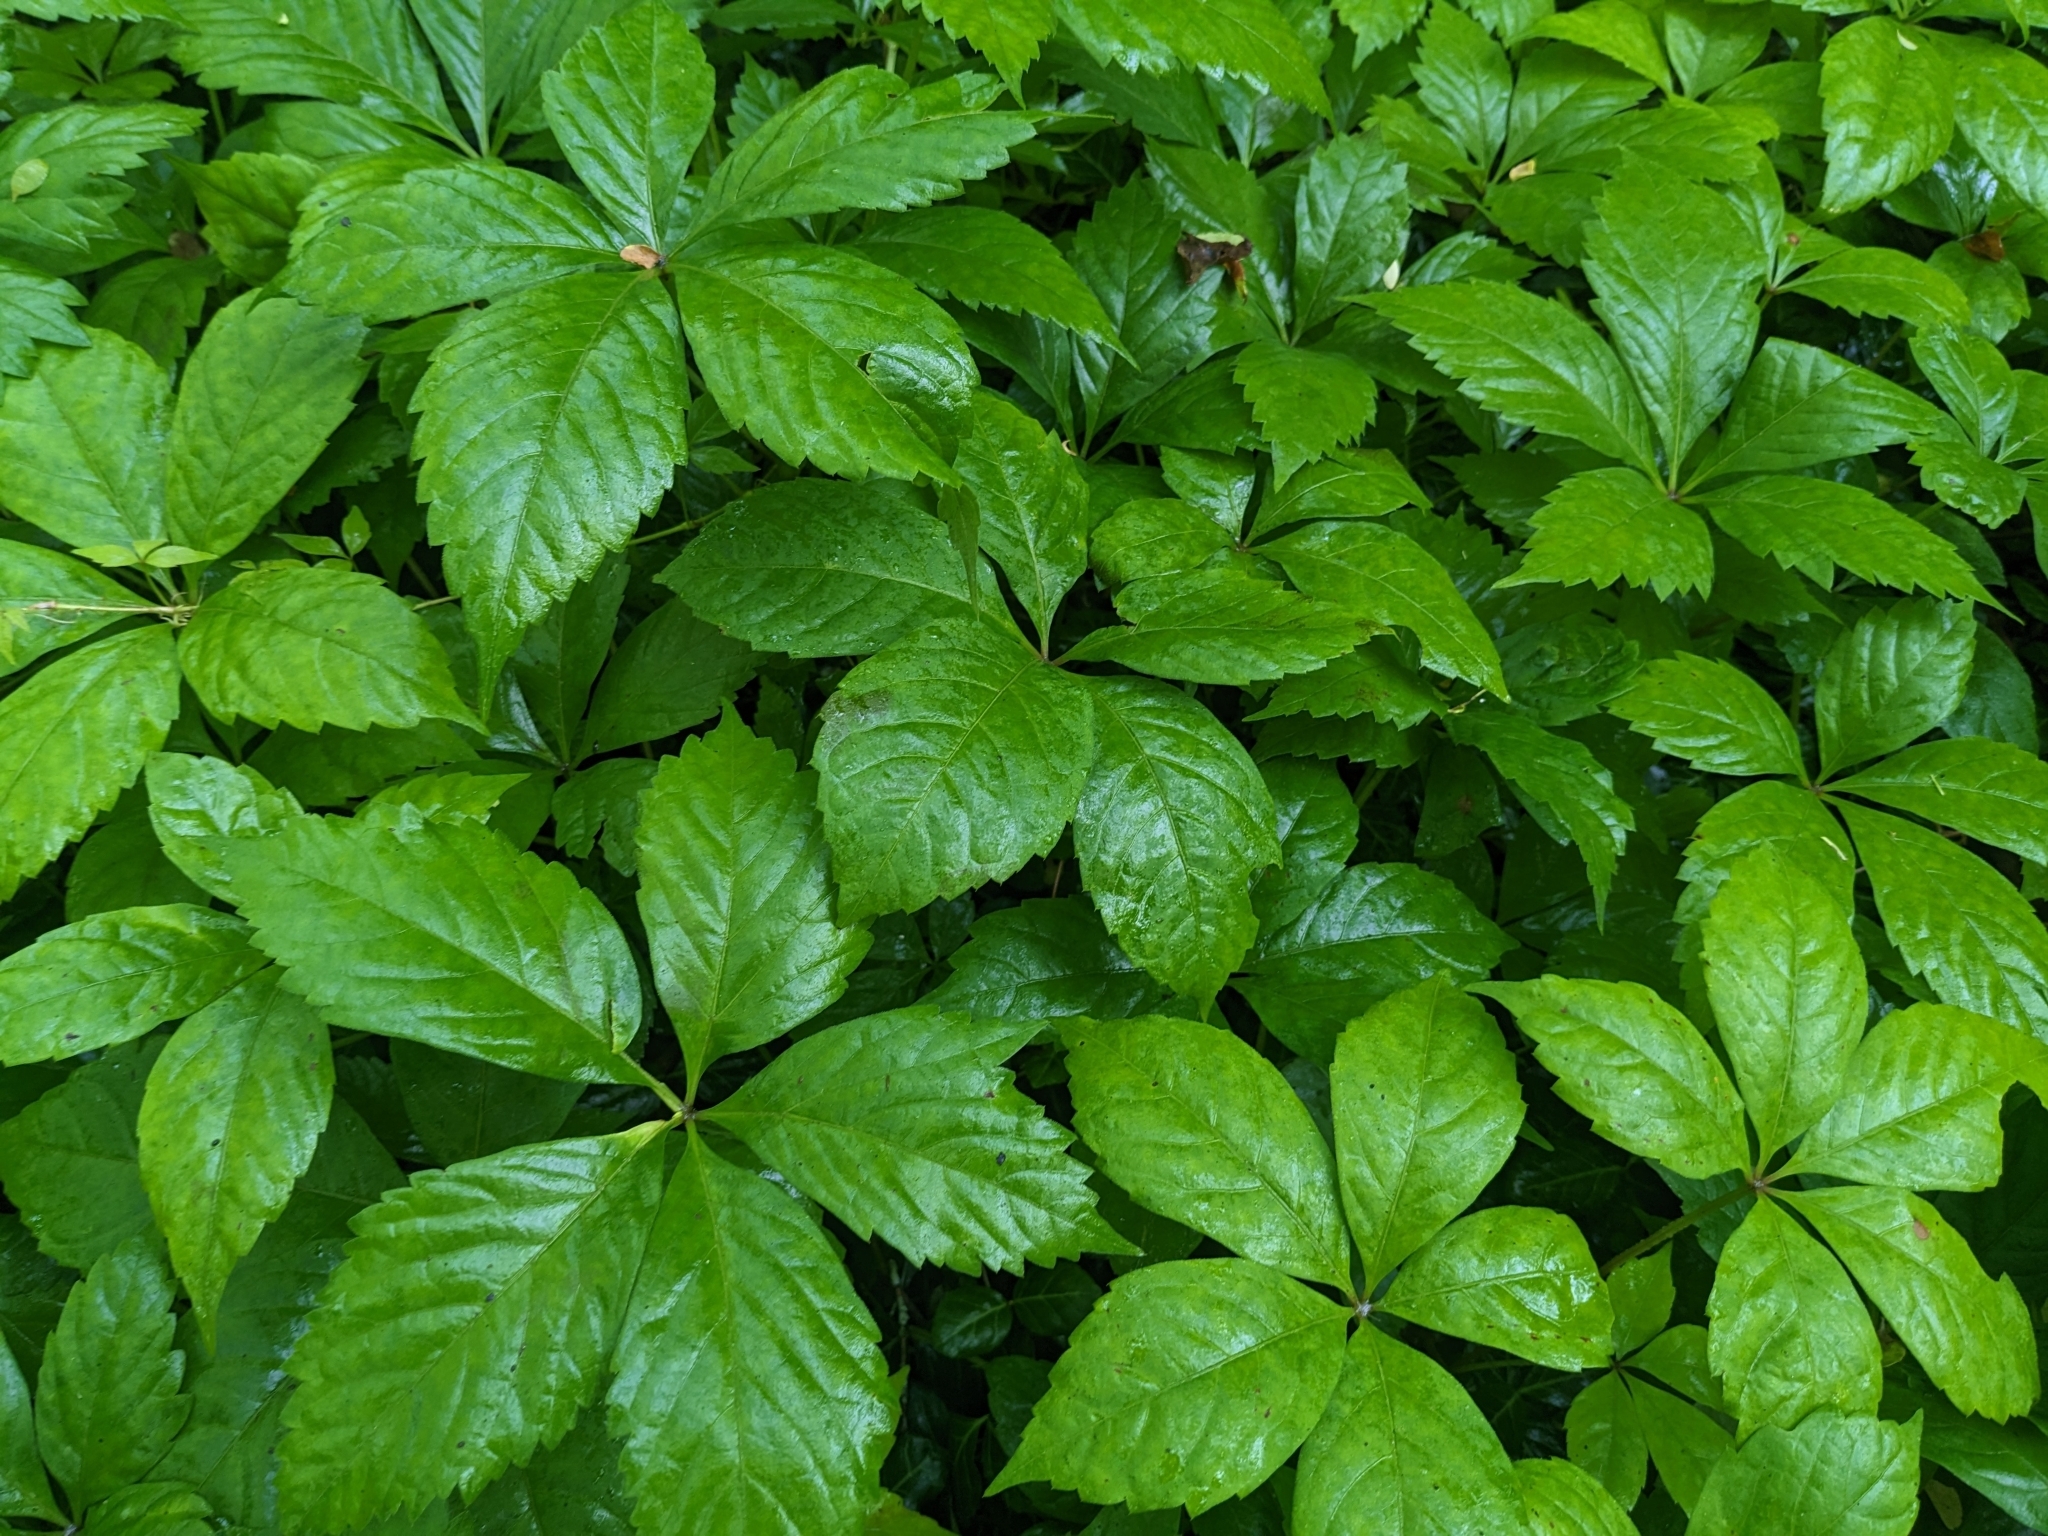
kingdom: Plantae
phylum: Tracheophyta
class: Magnoliopsida
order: Vitales
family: Vitaceae
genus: Parthenocissus
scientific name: Parthenocissus quinquefolia
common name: Virginia-creeper
